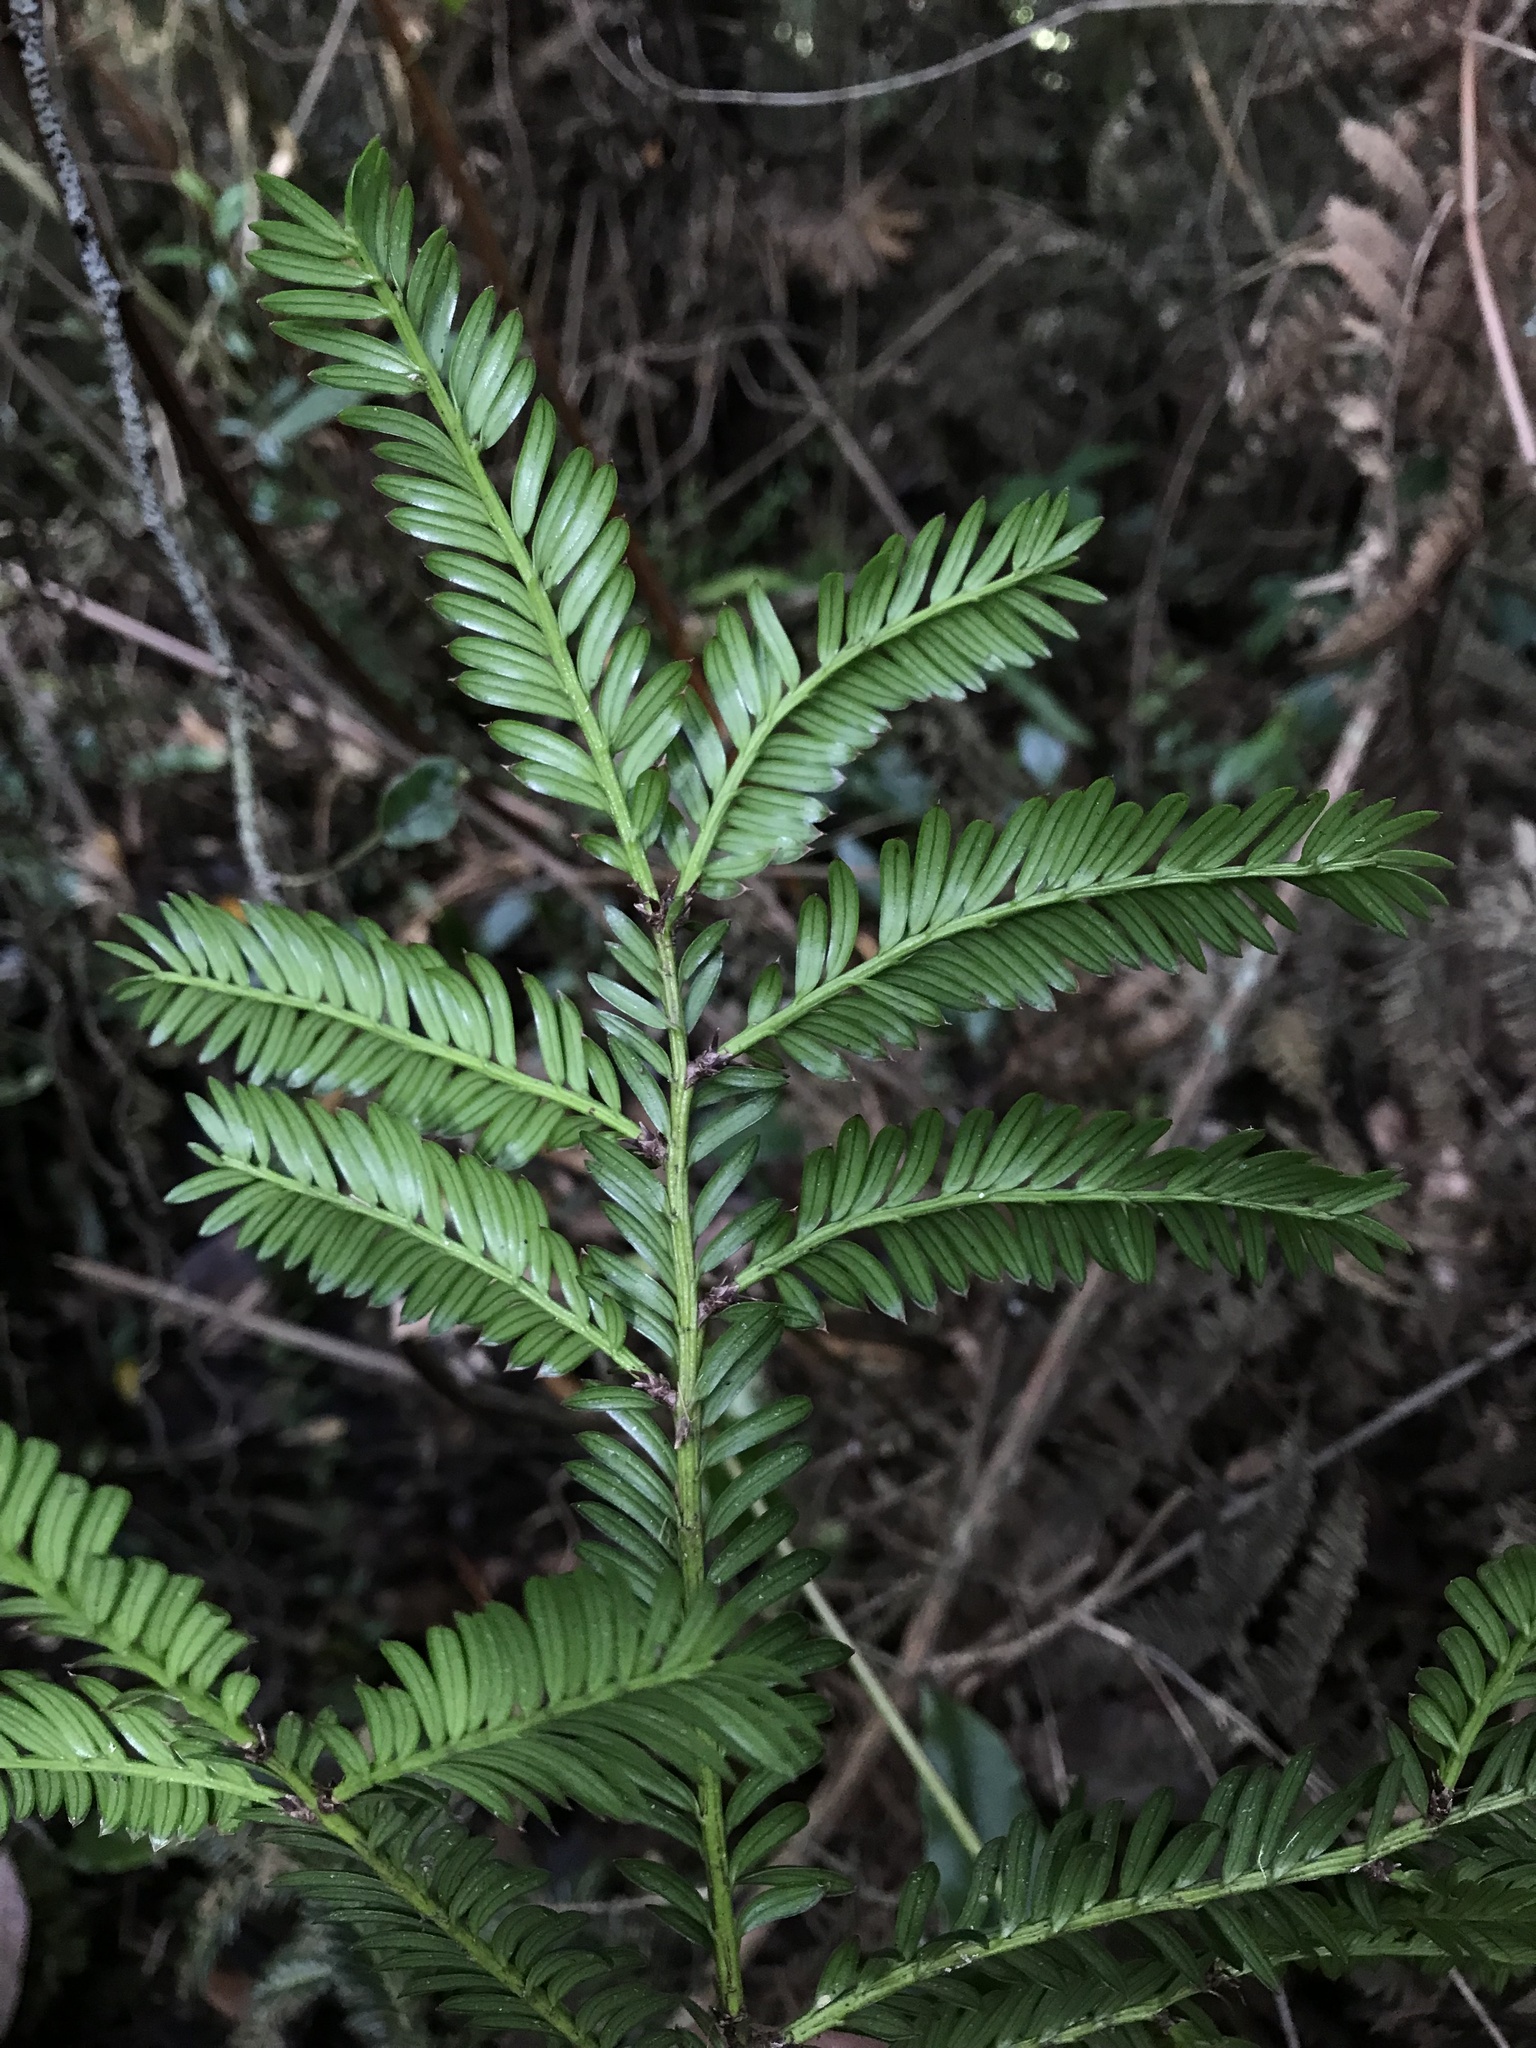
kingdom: Plantae
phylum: Tracheophyta
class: Pinopsida
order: Pinales
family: Podocarpaceae
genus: Prumnopitys
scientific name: Prumnopitys montana
